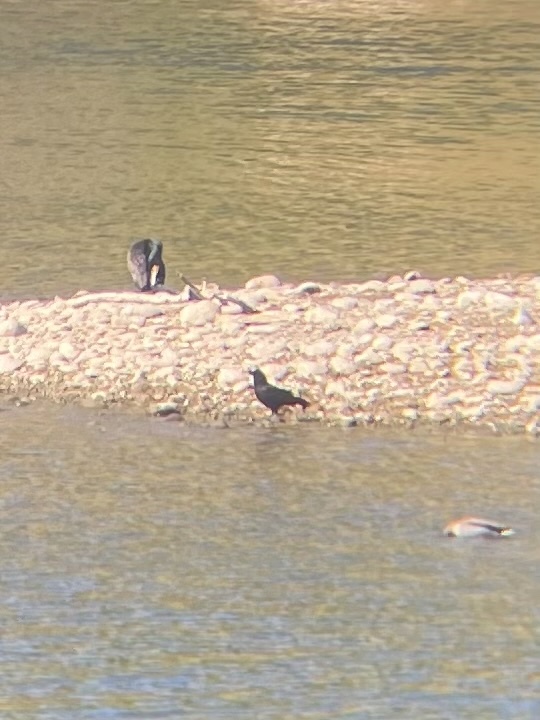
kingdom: Animalia
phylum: Chordata
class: Aves
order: Passeriformes
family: Corvidae
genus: Corvus
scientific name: Corvus brachyrhynchos
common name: American crow
